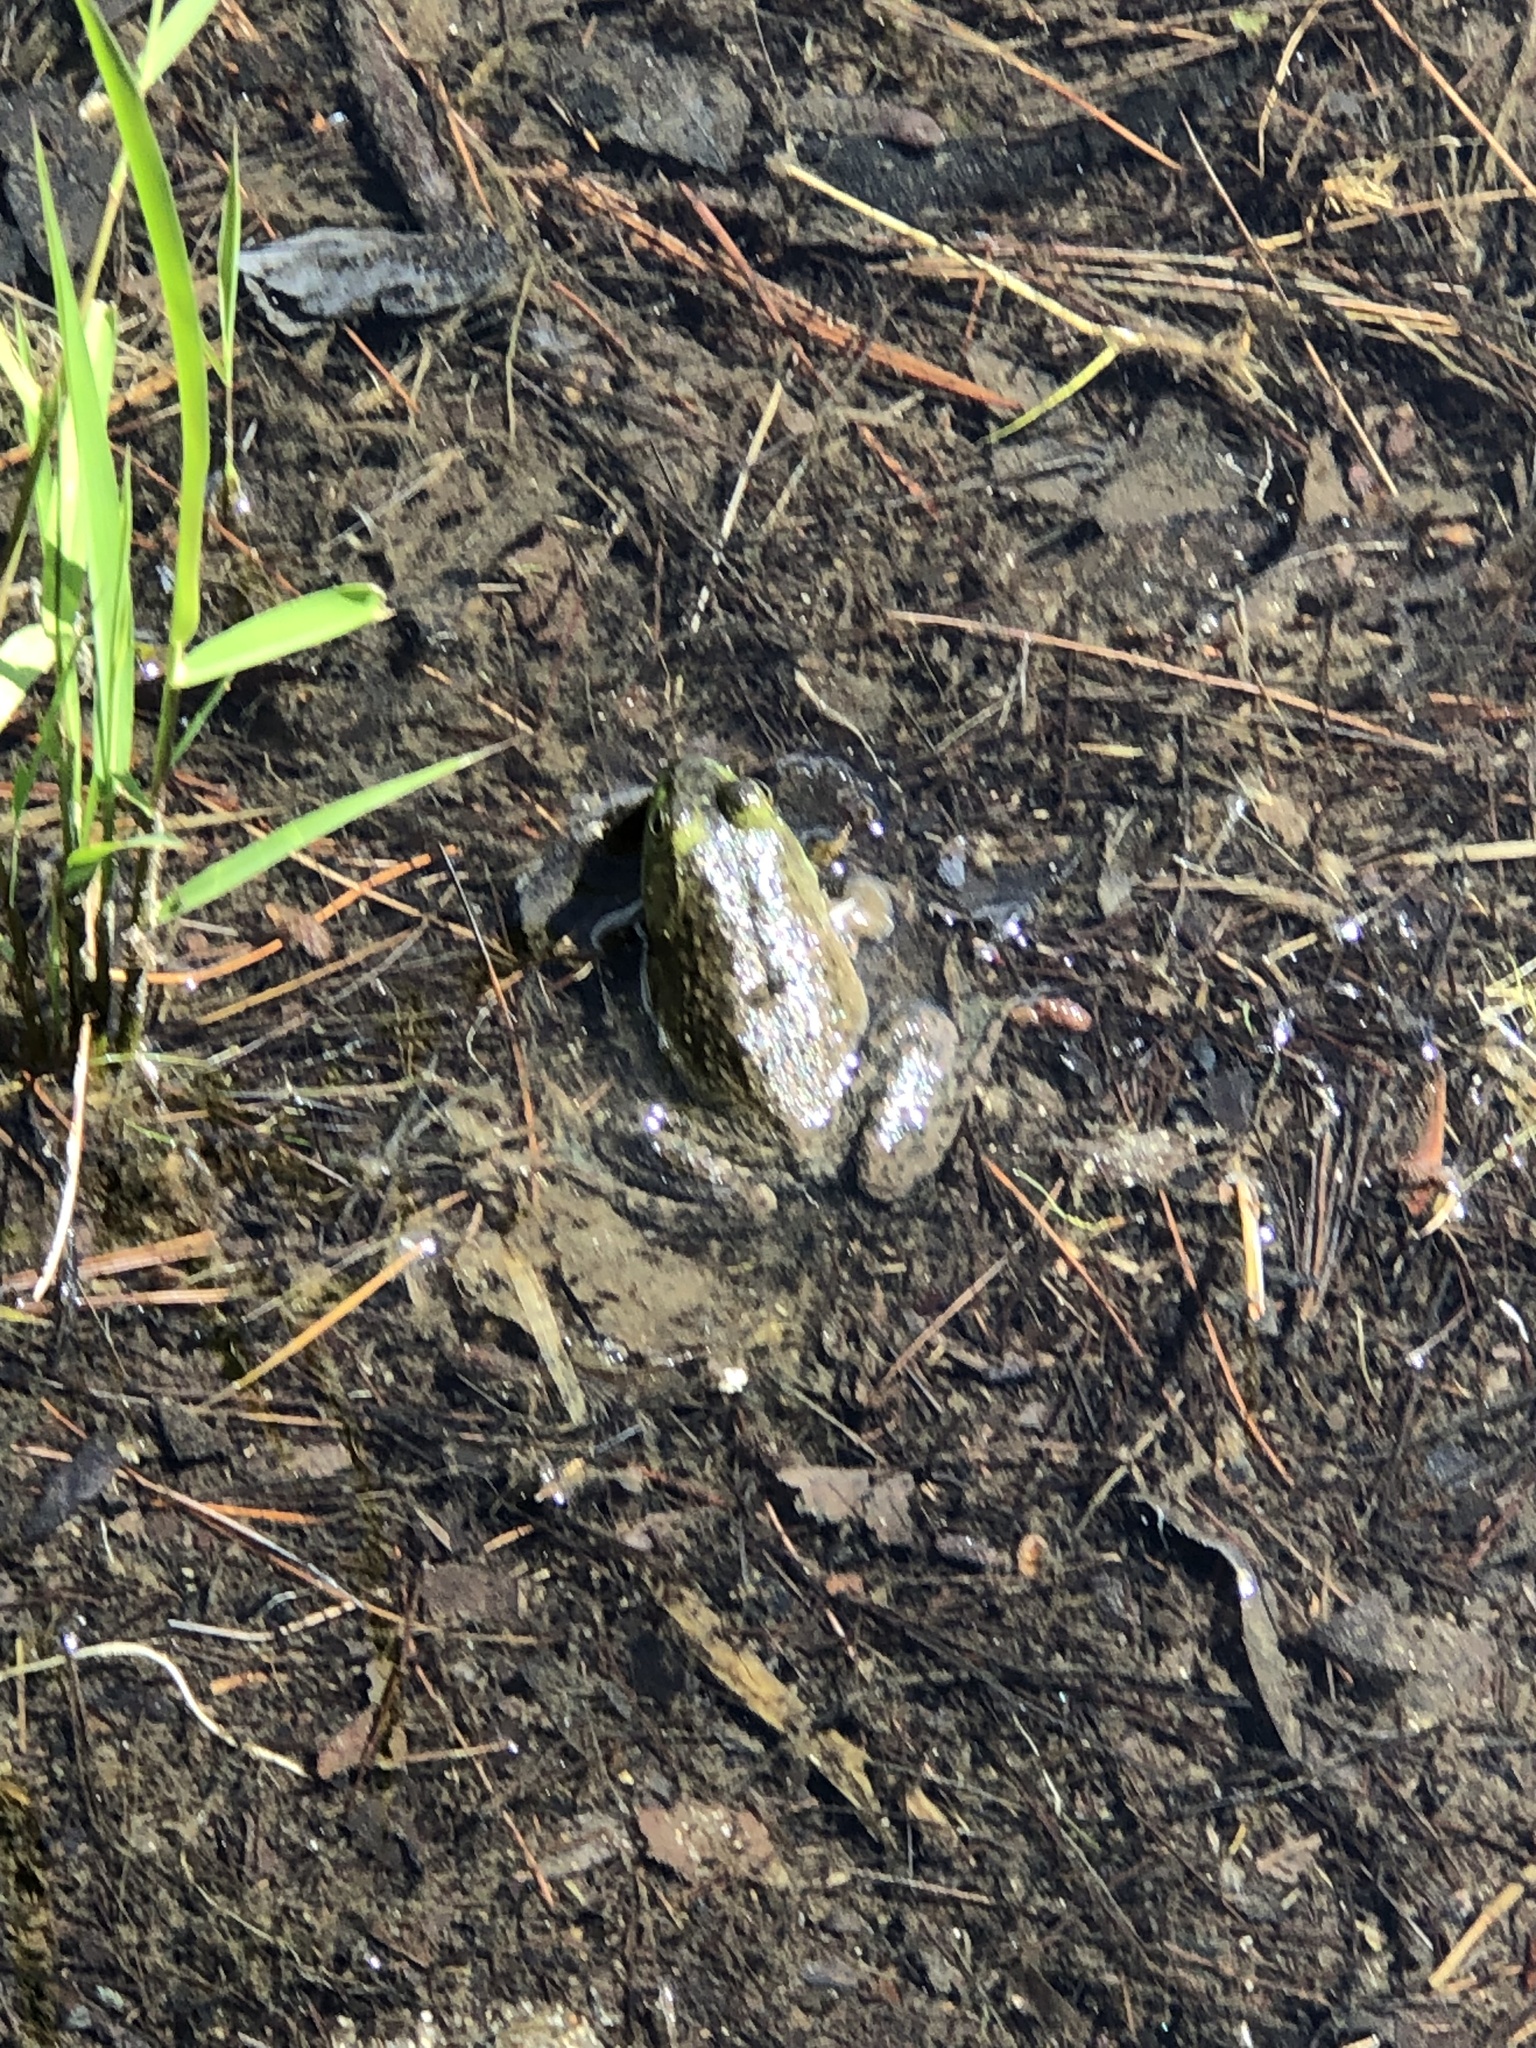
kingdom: Animalia
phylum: Chordata
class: Amphibia
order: Anura
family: Ranidae
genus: Lithobates
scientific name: Lithobates catesbeianus
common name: American bullfrog
